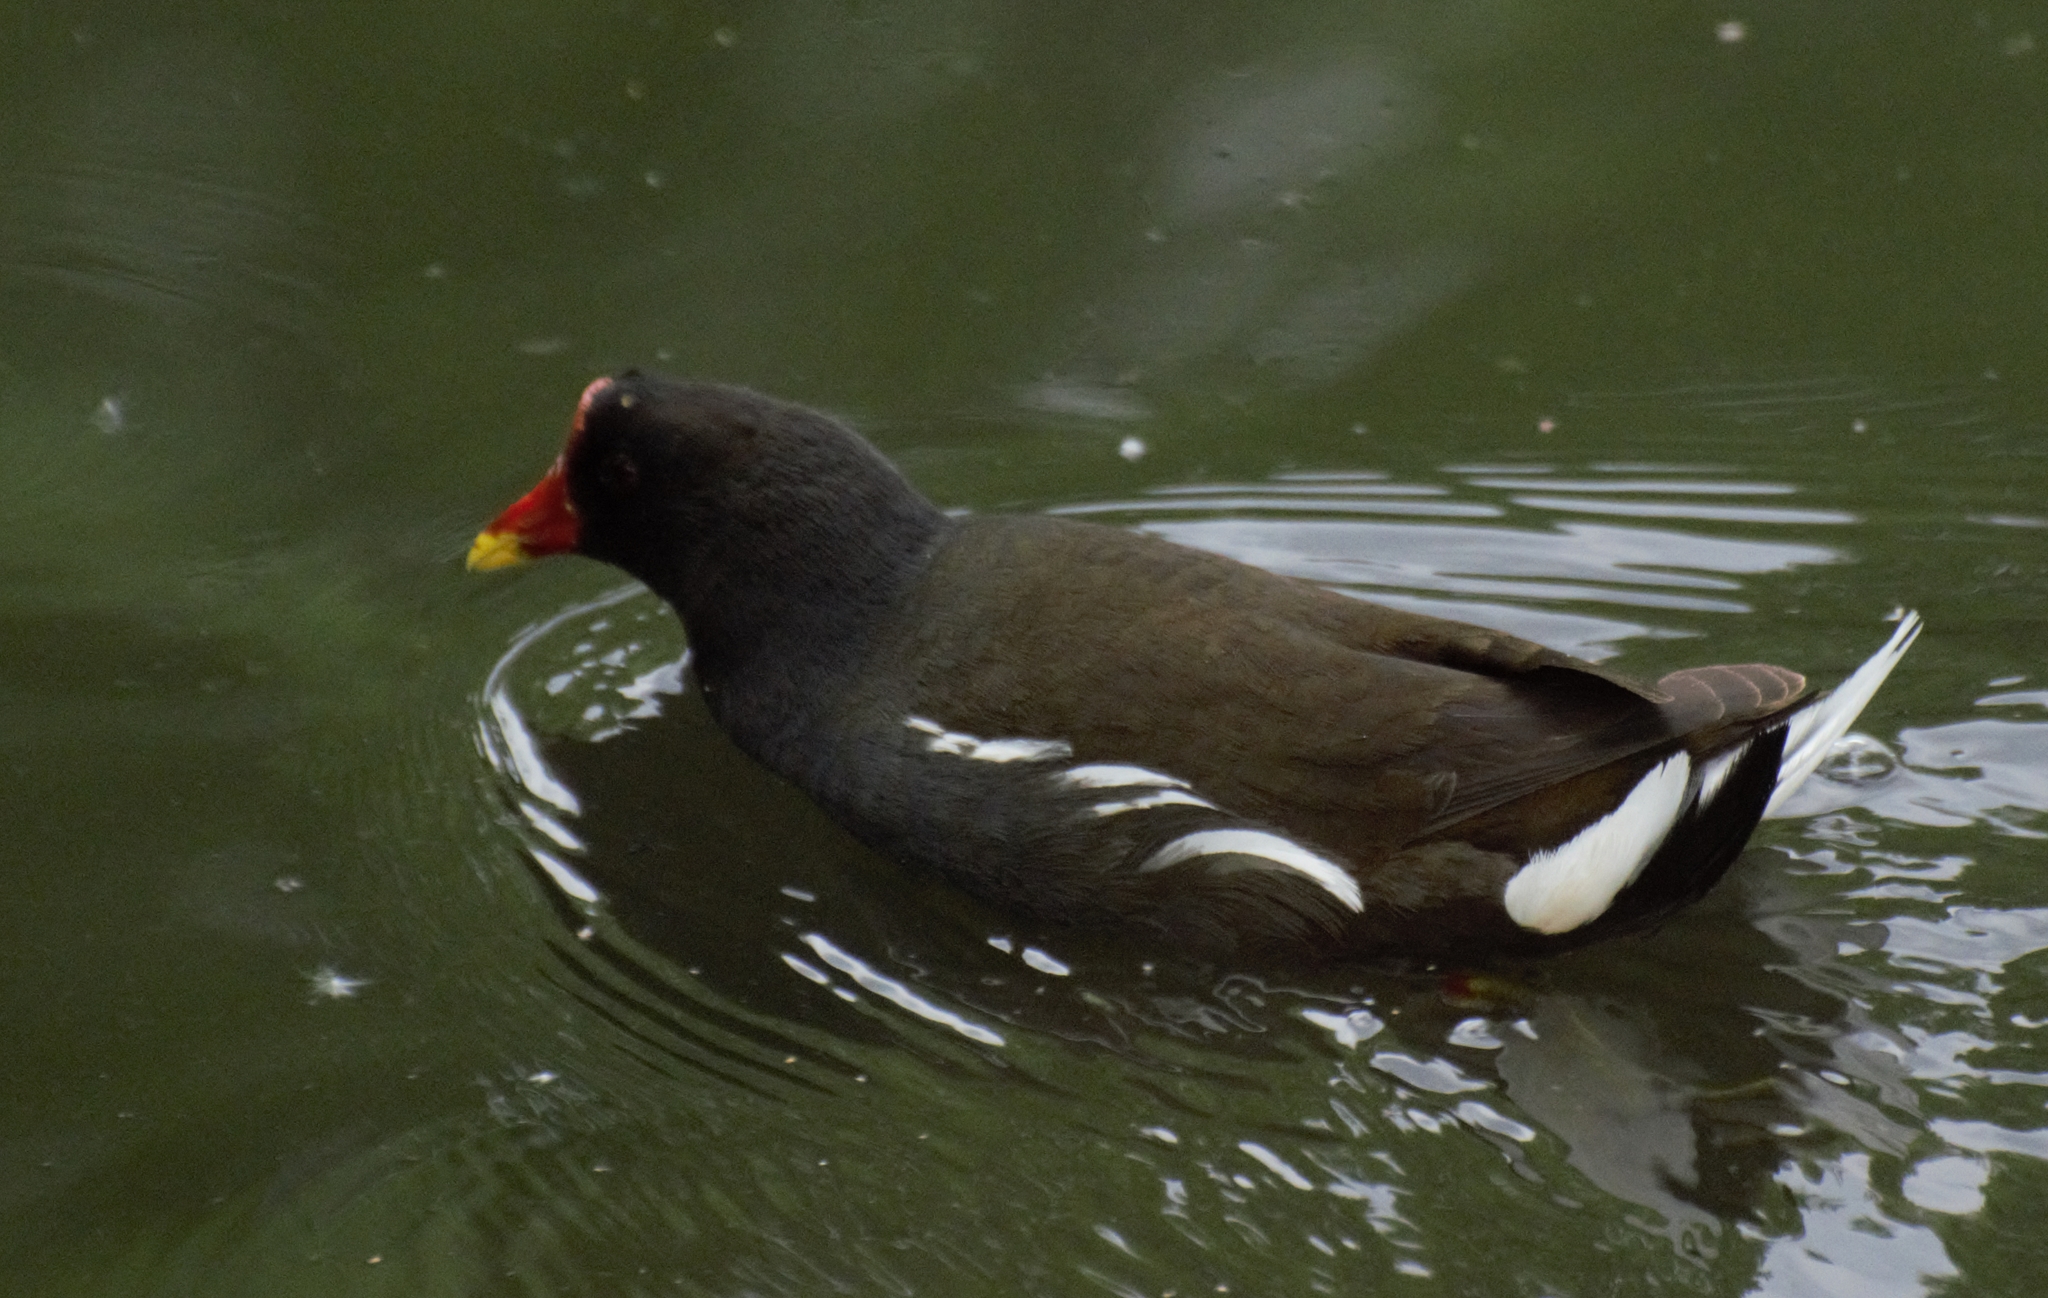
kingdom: Animalia
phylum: Chordata
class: Aves
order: Gruiformes
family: Rallidae
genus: Gallinula
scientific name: Gallinula chloropus
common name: Common moorhen
